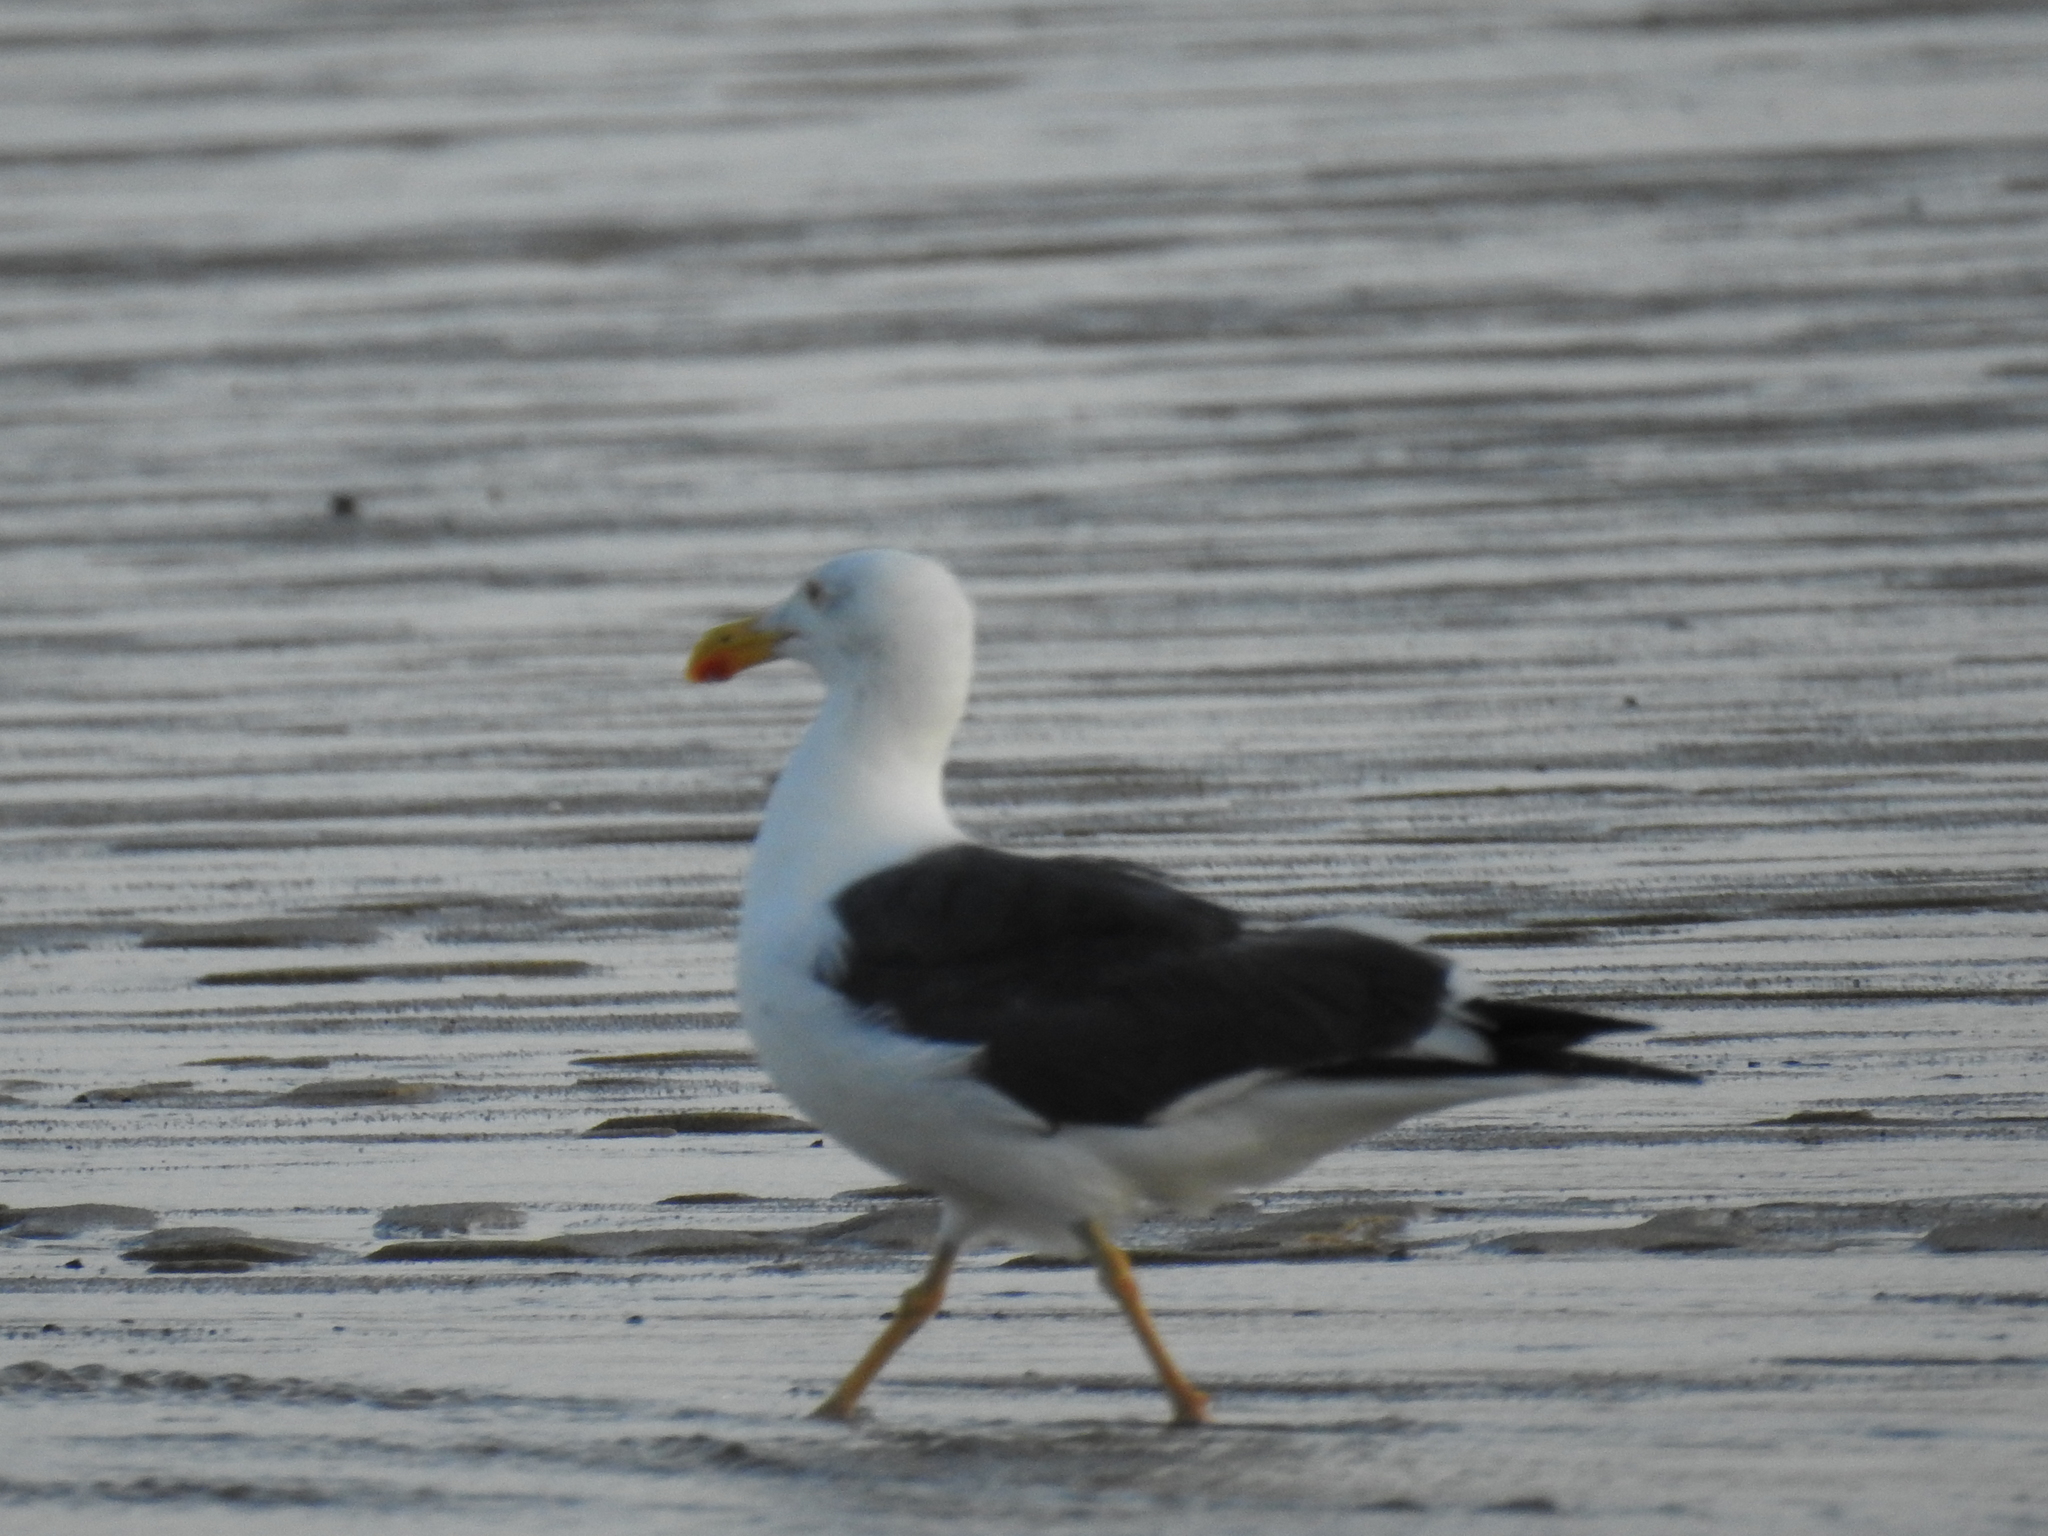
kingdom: Animalia
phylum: Chordata
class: Aves
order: Charadriiformes
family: Laridae
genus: Larus
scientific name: Larus livens
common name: Yellow-footed gull
